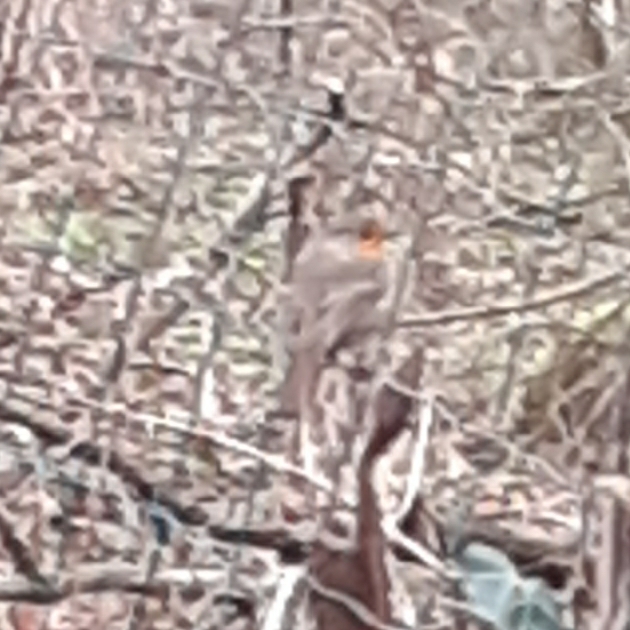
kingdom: Animalia
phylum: Chordata
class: Aves
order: Passeriformes
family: Muscicapidae
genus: Erithacus
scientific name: Erithacus rubecula
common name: European robin
